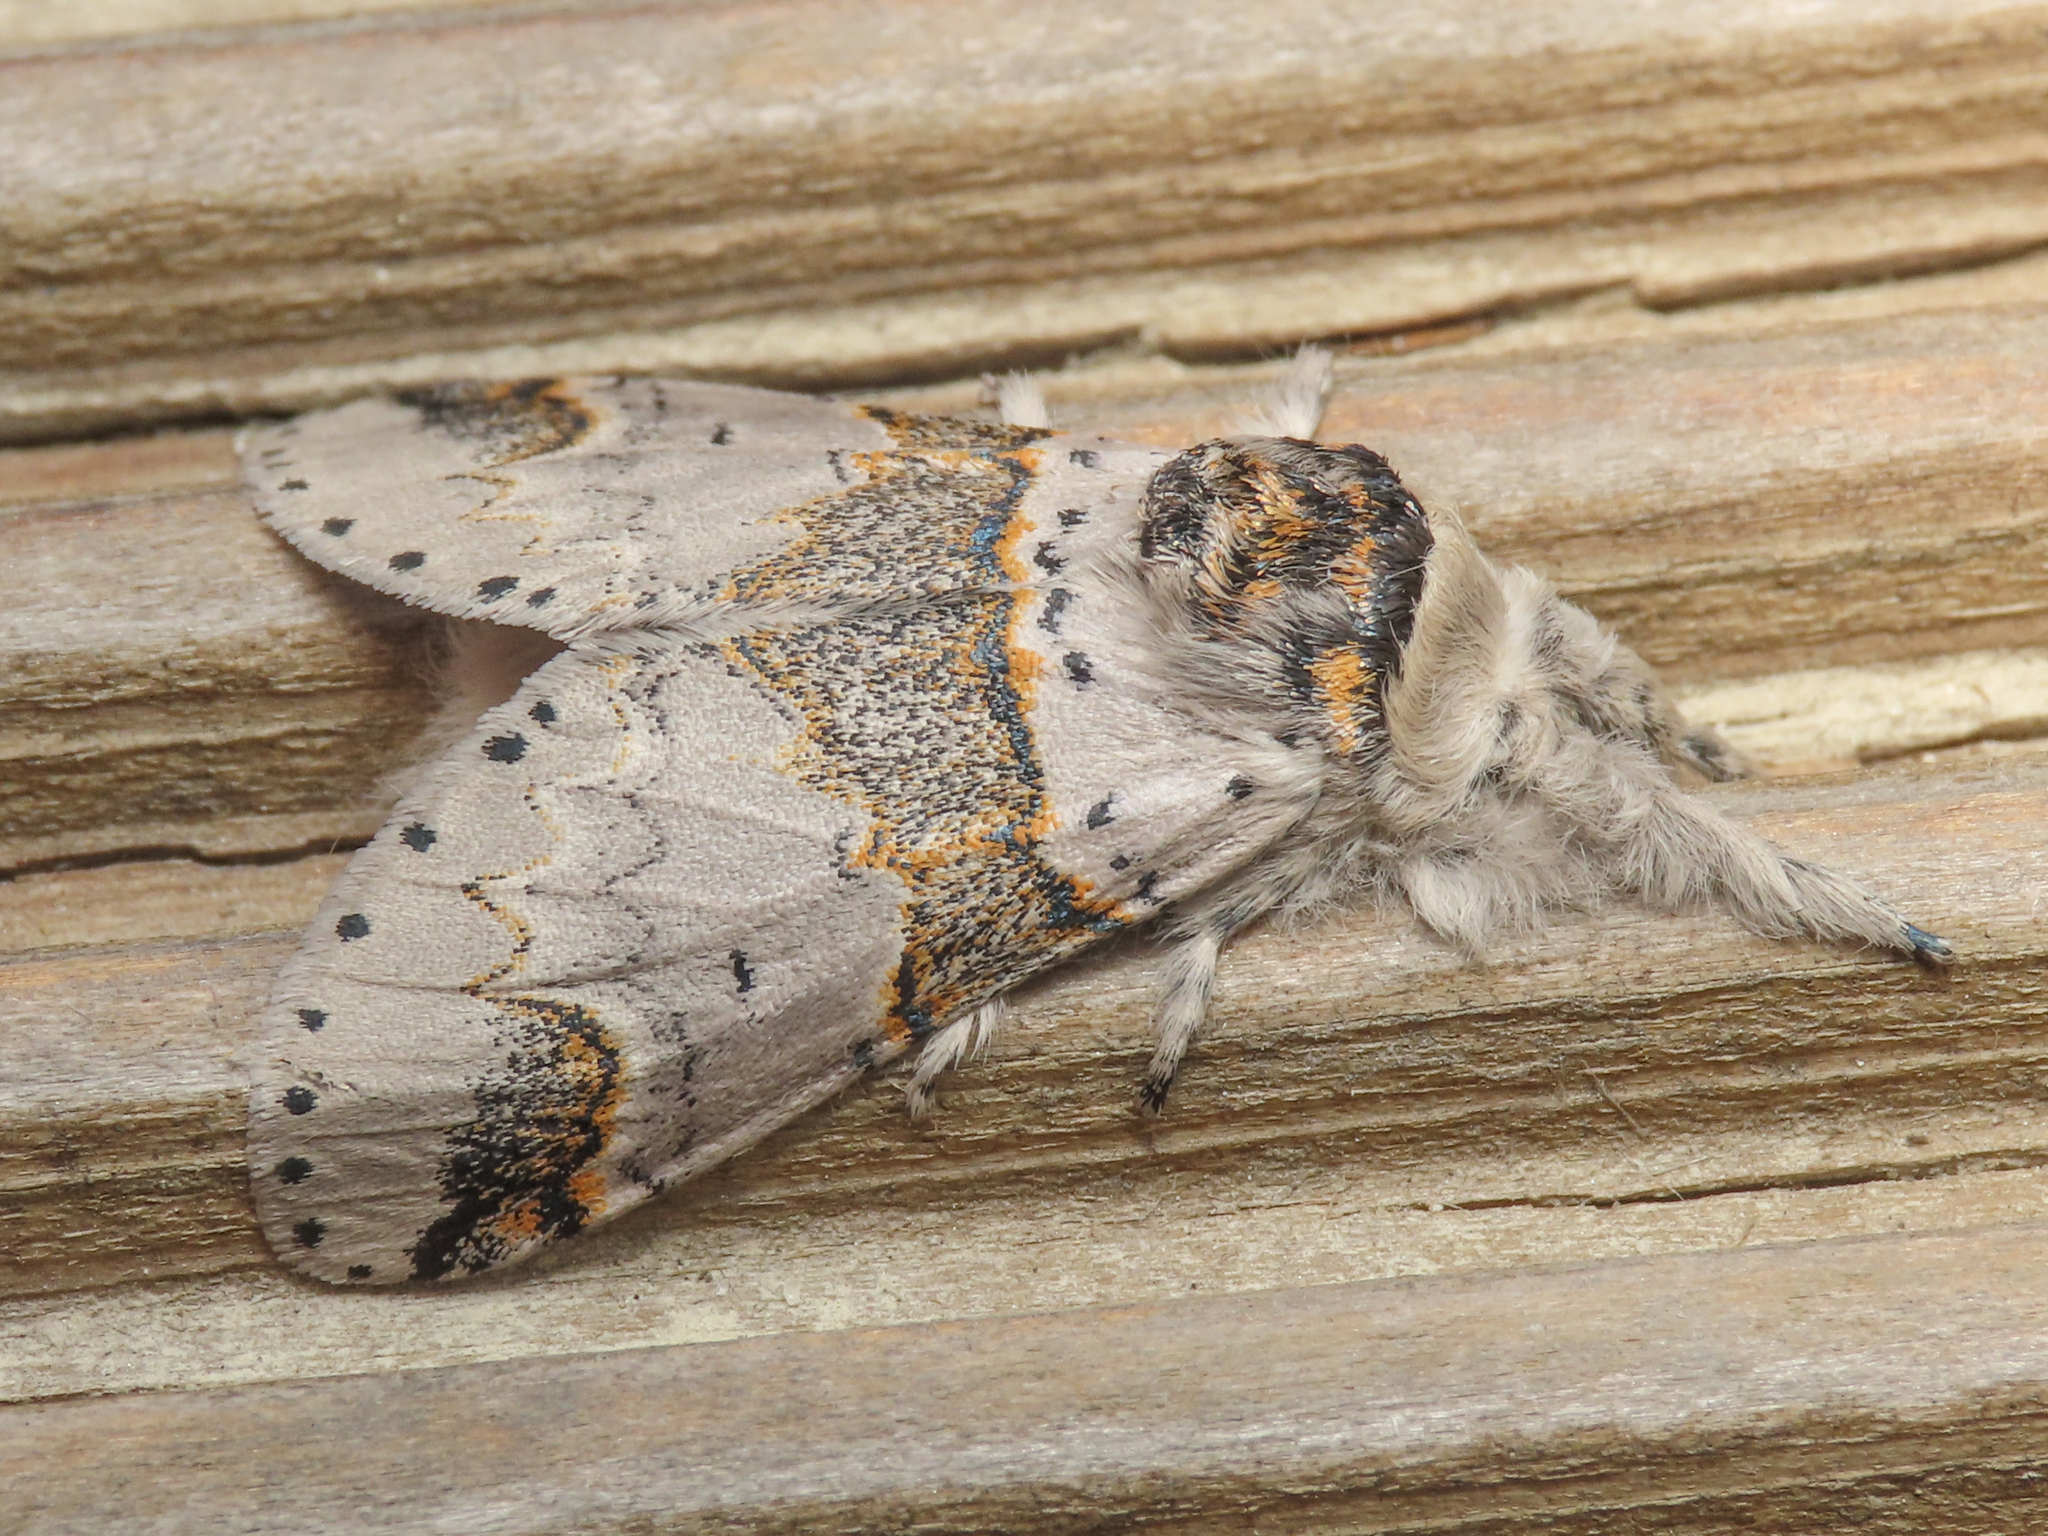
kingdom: Animalia
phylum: Arthropoda
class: Insecta
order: Lepidoptera
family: Notodontidae
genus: Furcula
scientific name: Furcula furcula
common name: Sallow kitten
